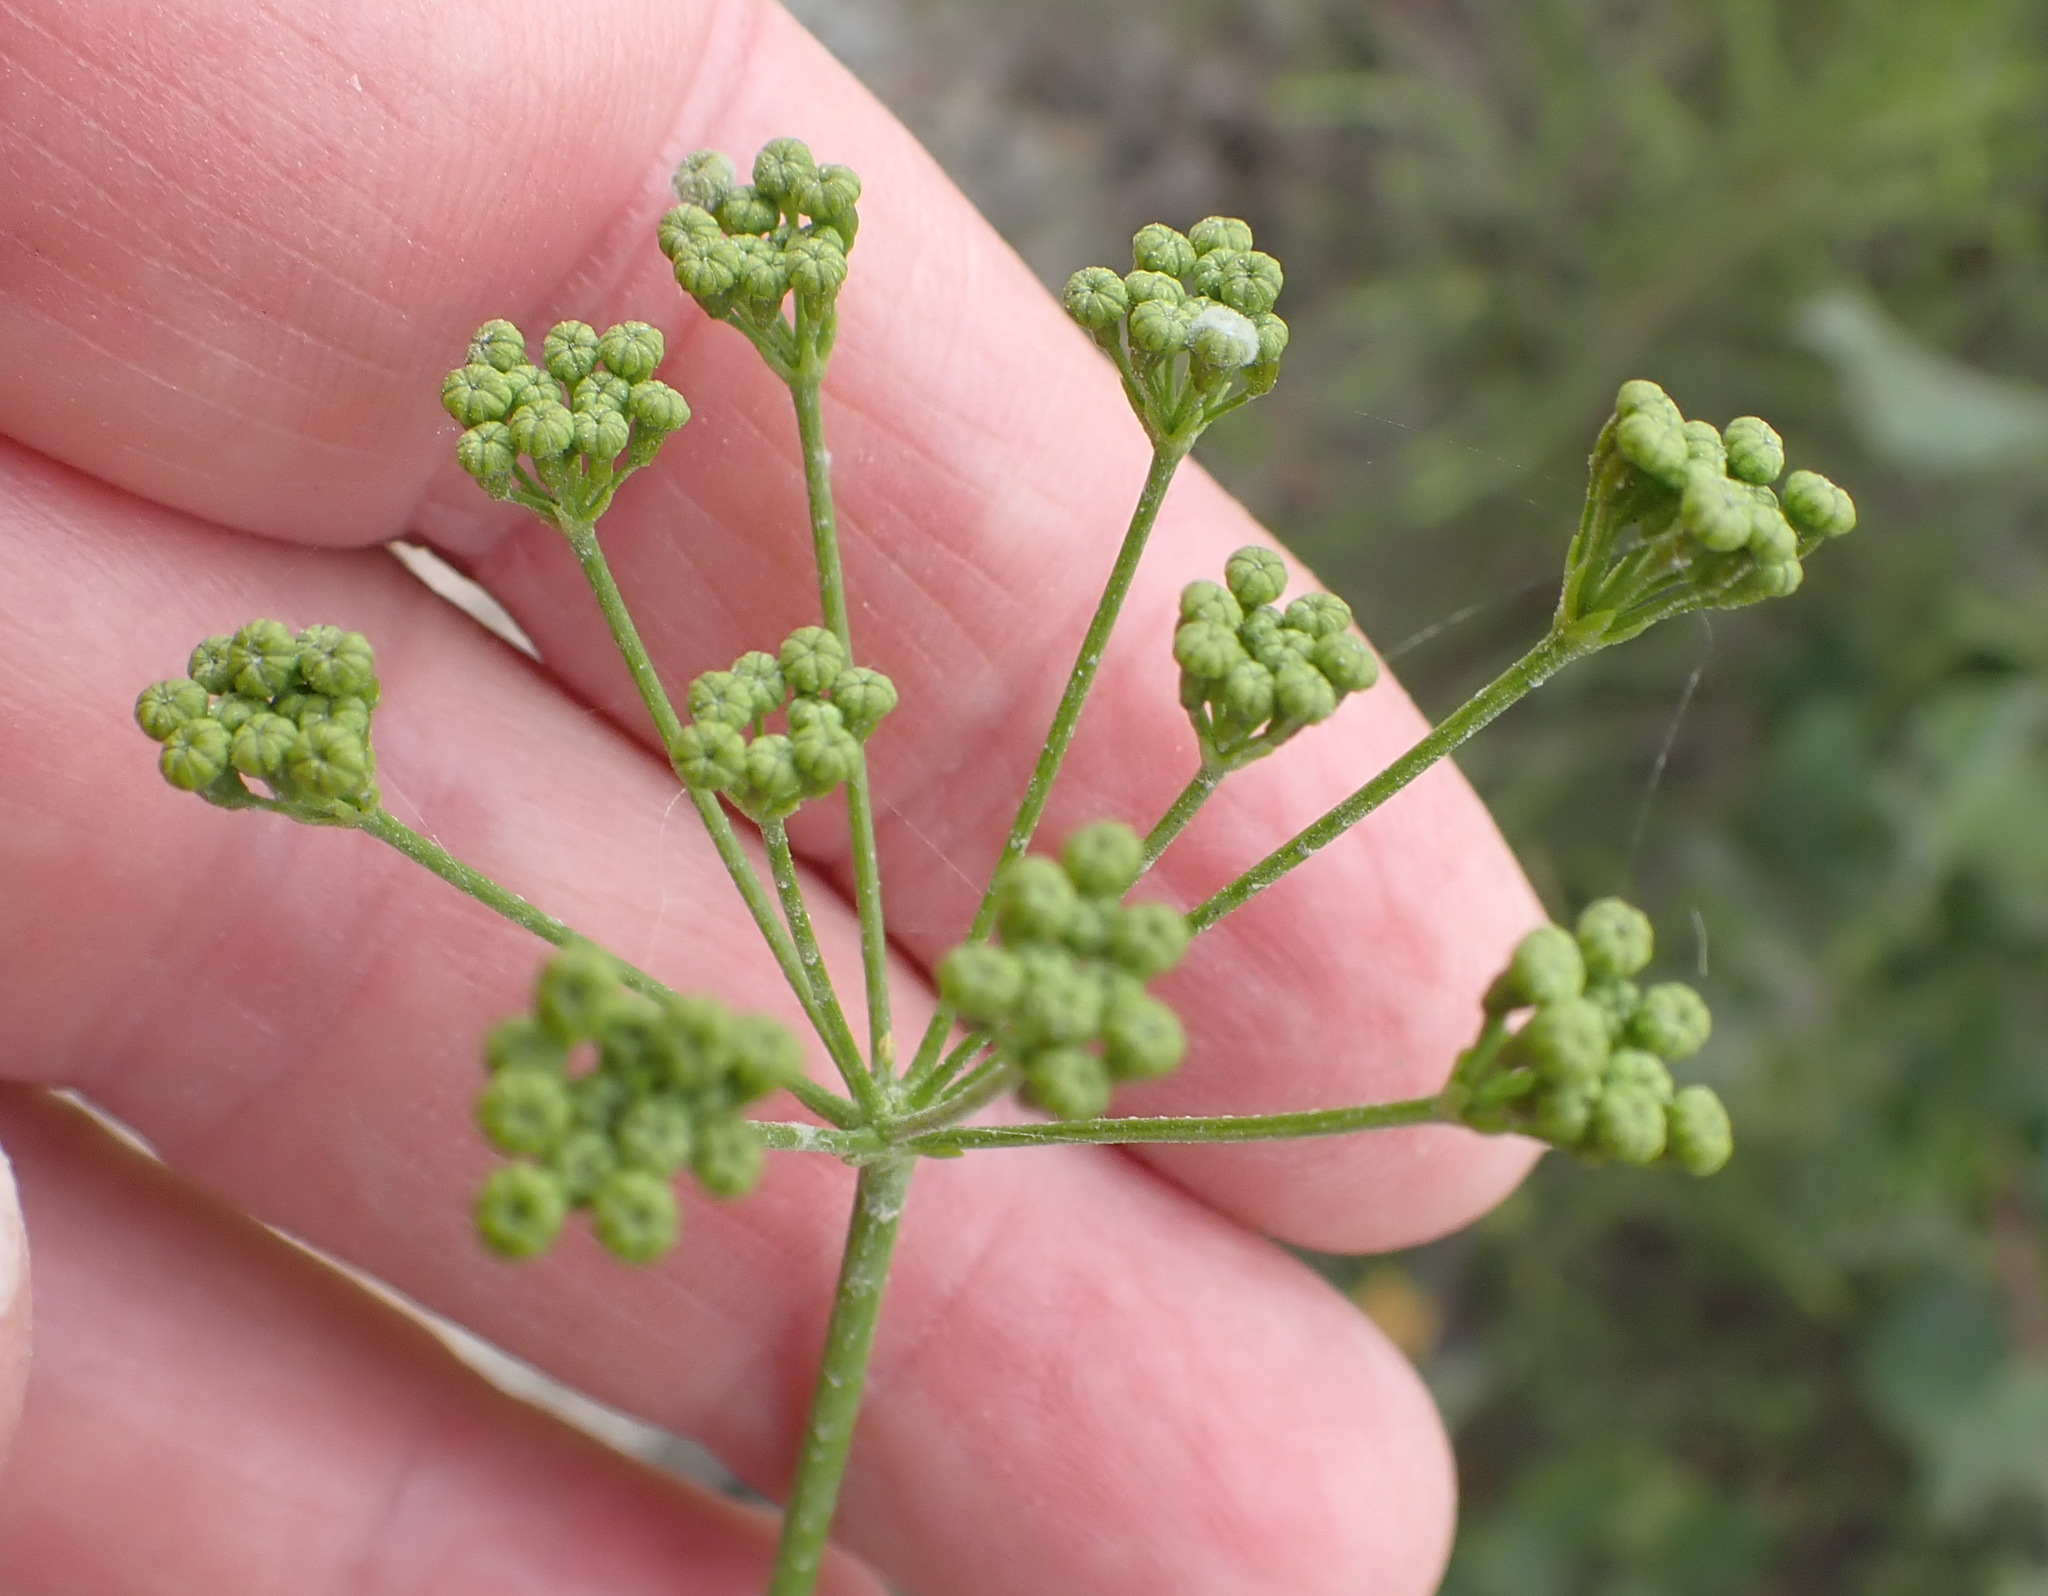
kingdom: Plantae
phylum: Tracheophyta
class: Magnoliopsida
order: Apiales
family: Apiaceae
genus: Anginon
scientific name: Anginon difforme
